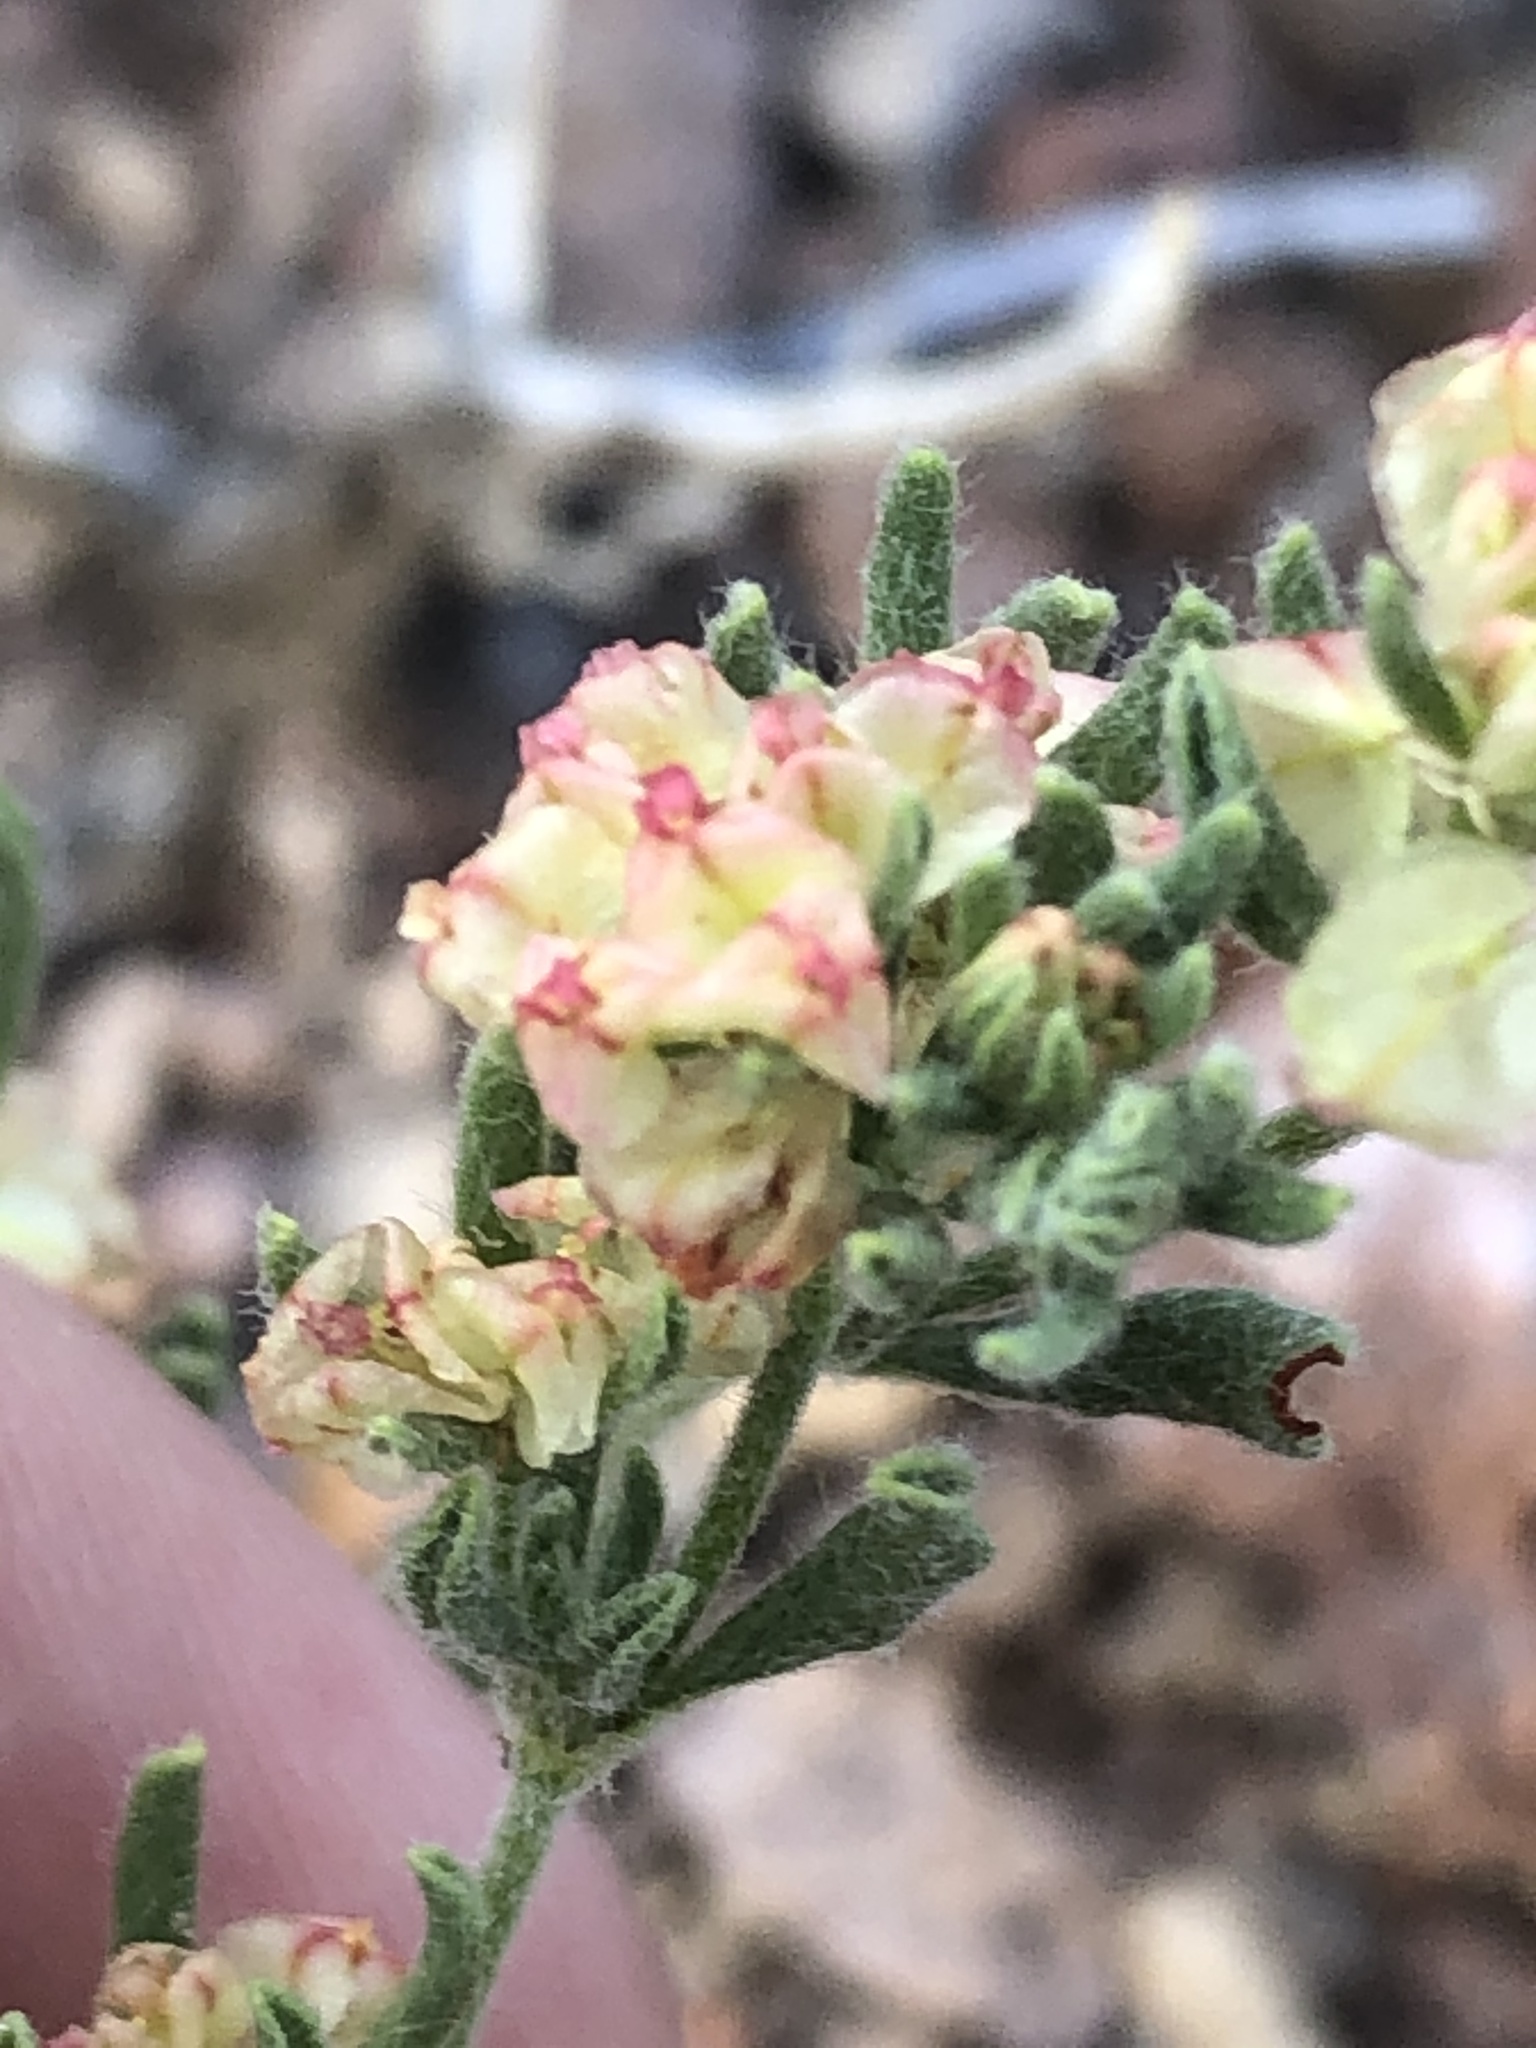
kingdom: Plantae
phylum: Tracheophyta
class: Magnoliopsida
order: Caryophyllales
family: Polygonaceae
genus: Eriogonum
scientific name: Eriogonum abertianum
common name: Abert's wild buckwheat
